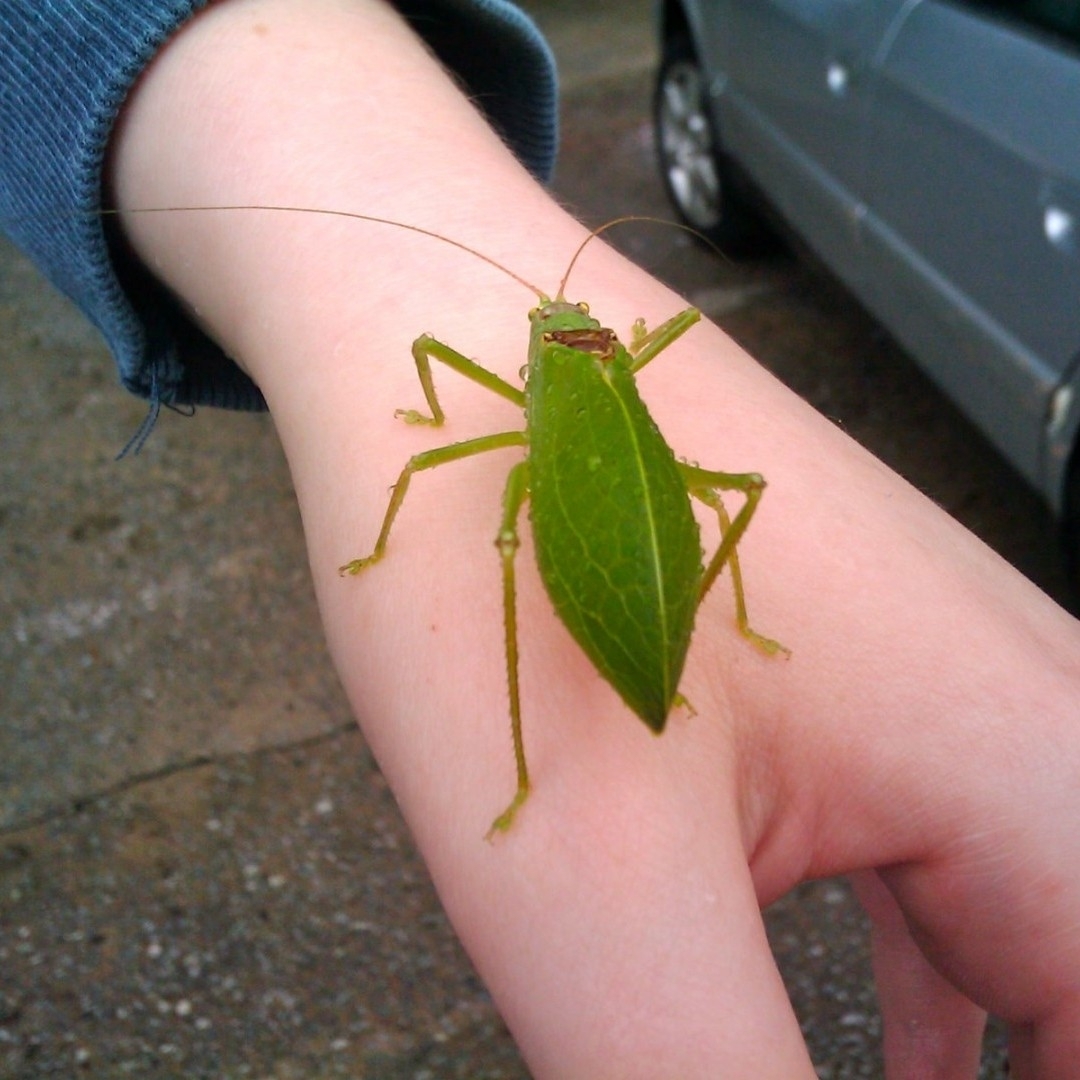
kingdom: Animalia
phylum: Arthropoda
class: Insecta
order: Orthoptera
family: Tettigoniidae
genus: Pterophylla
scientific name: Pterophylla camellifolia
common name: Common true katydid
